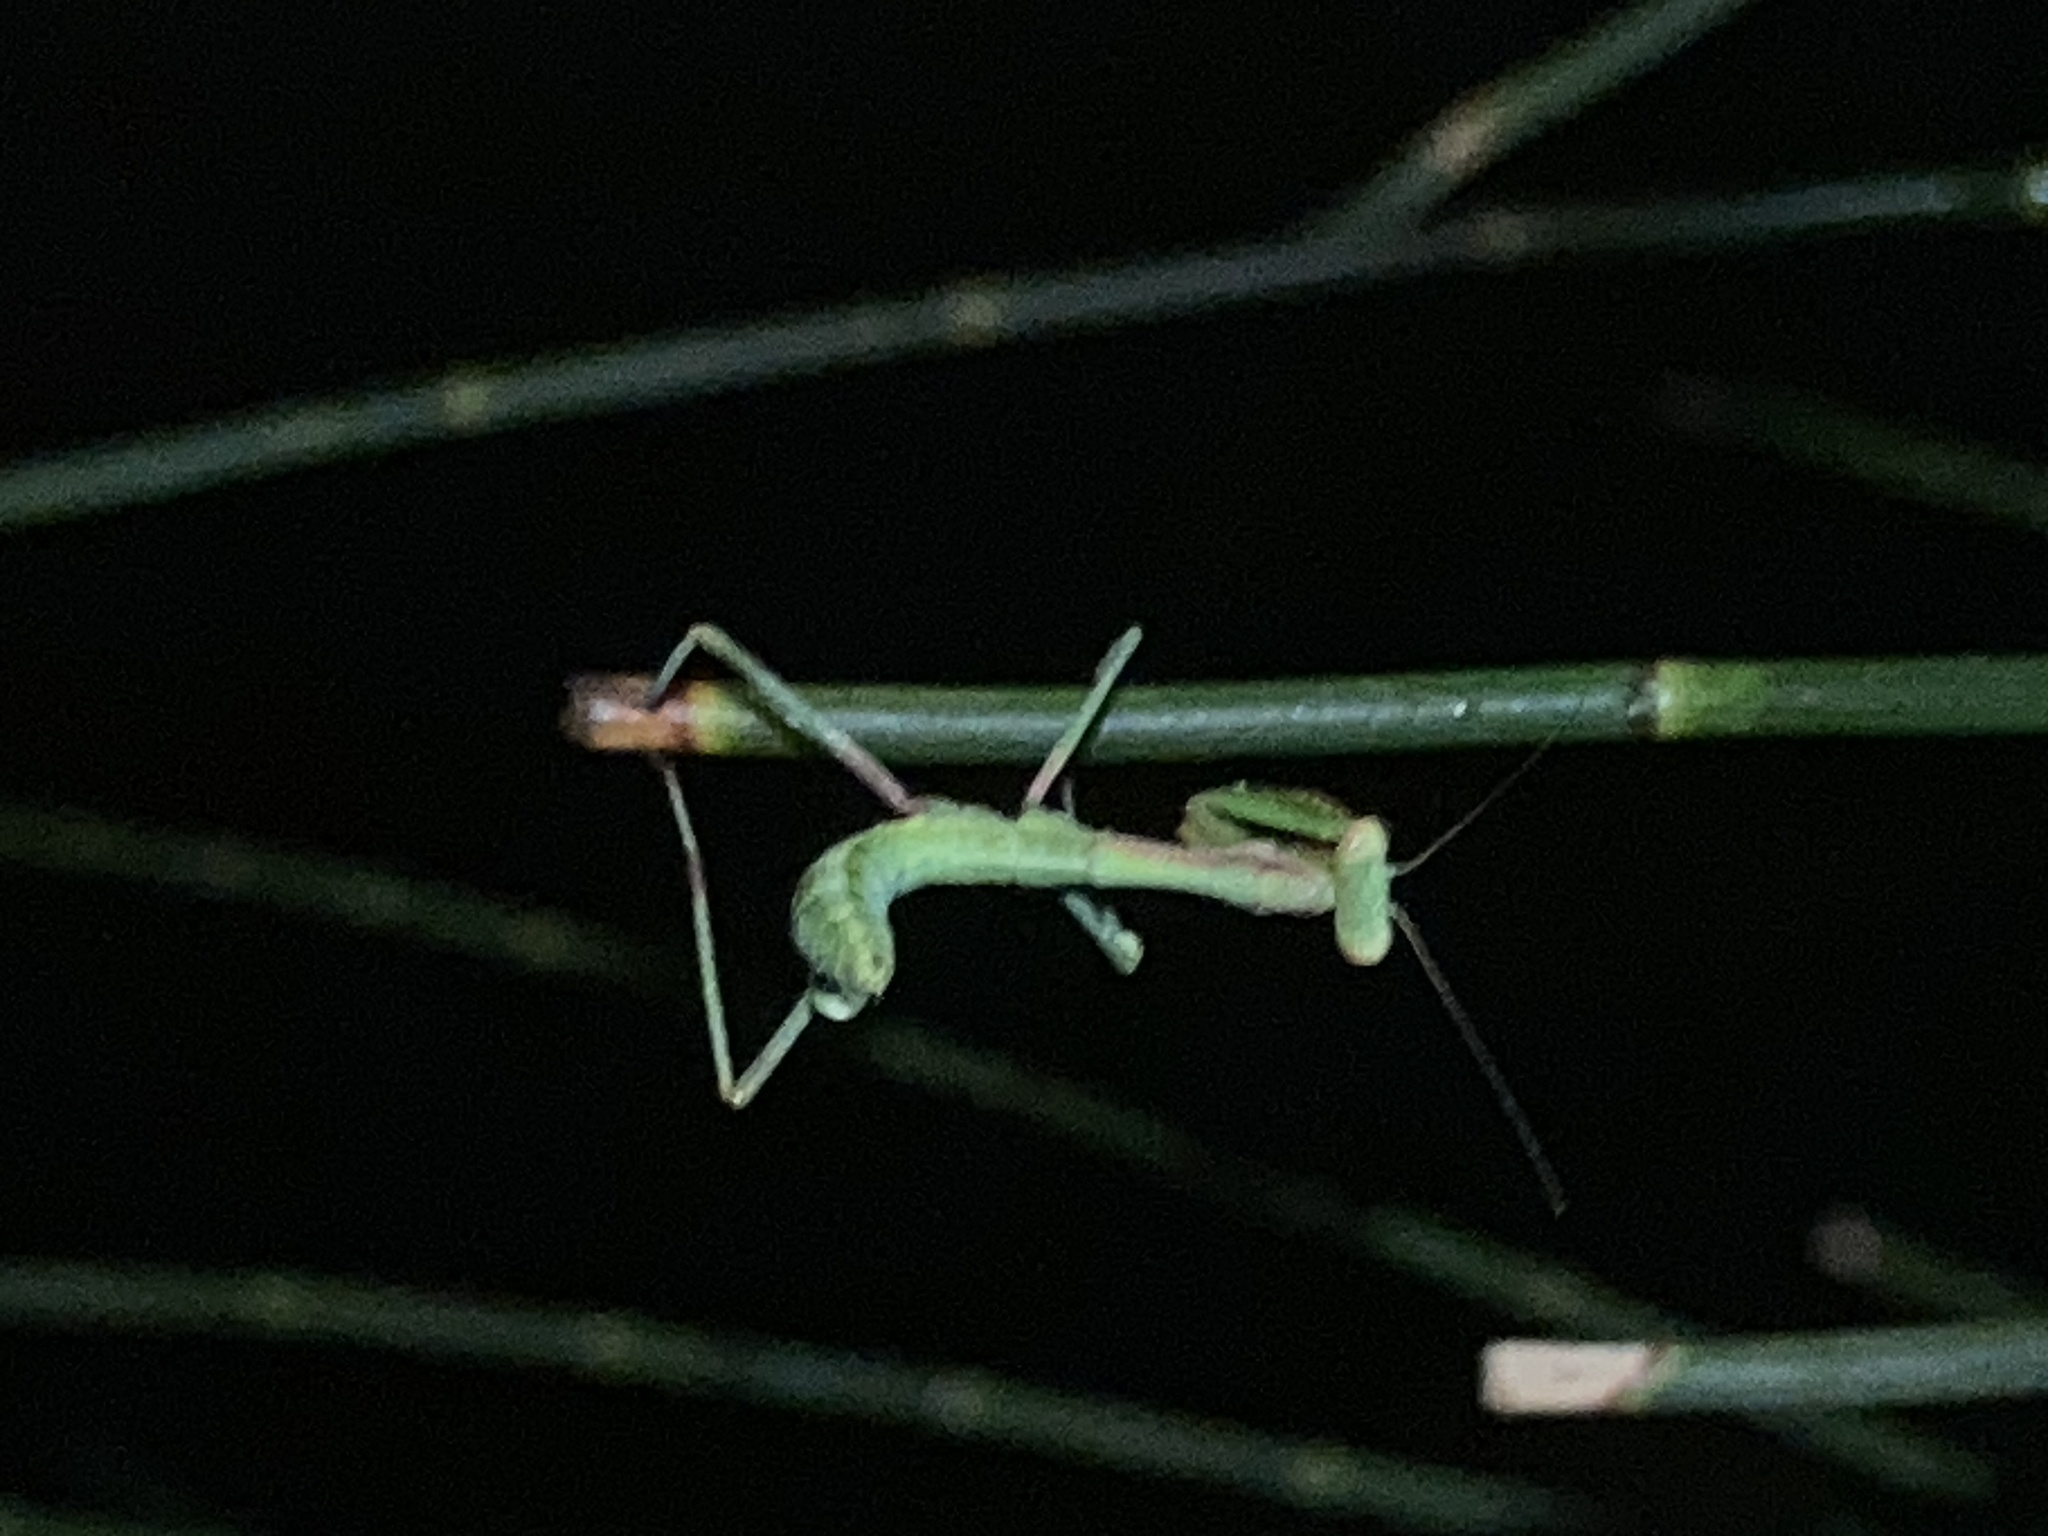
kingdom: Animalia
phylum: Arthropoda
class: Insecta
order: Mantodea
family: Mantidae
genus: Pseudomantis
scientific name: Pseudomantis albofimbriata
